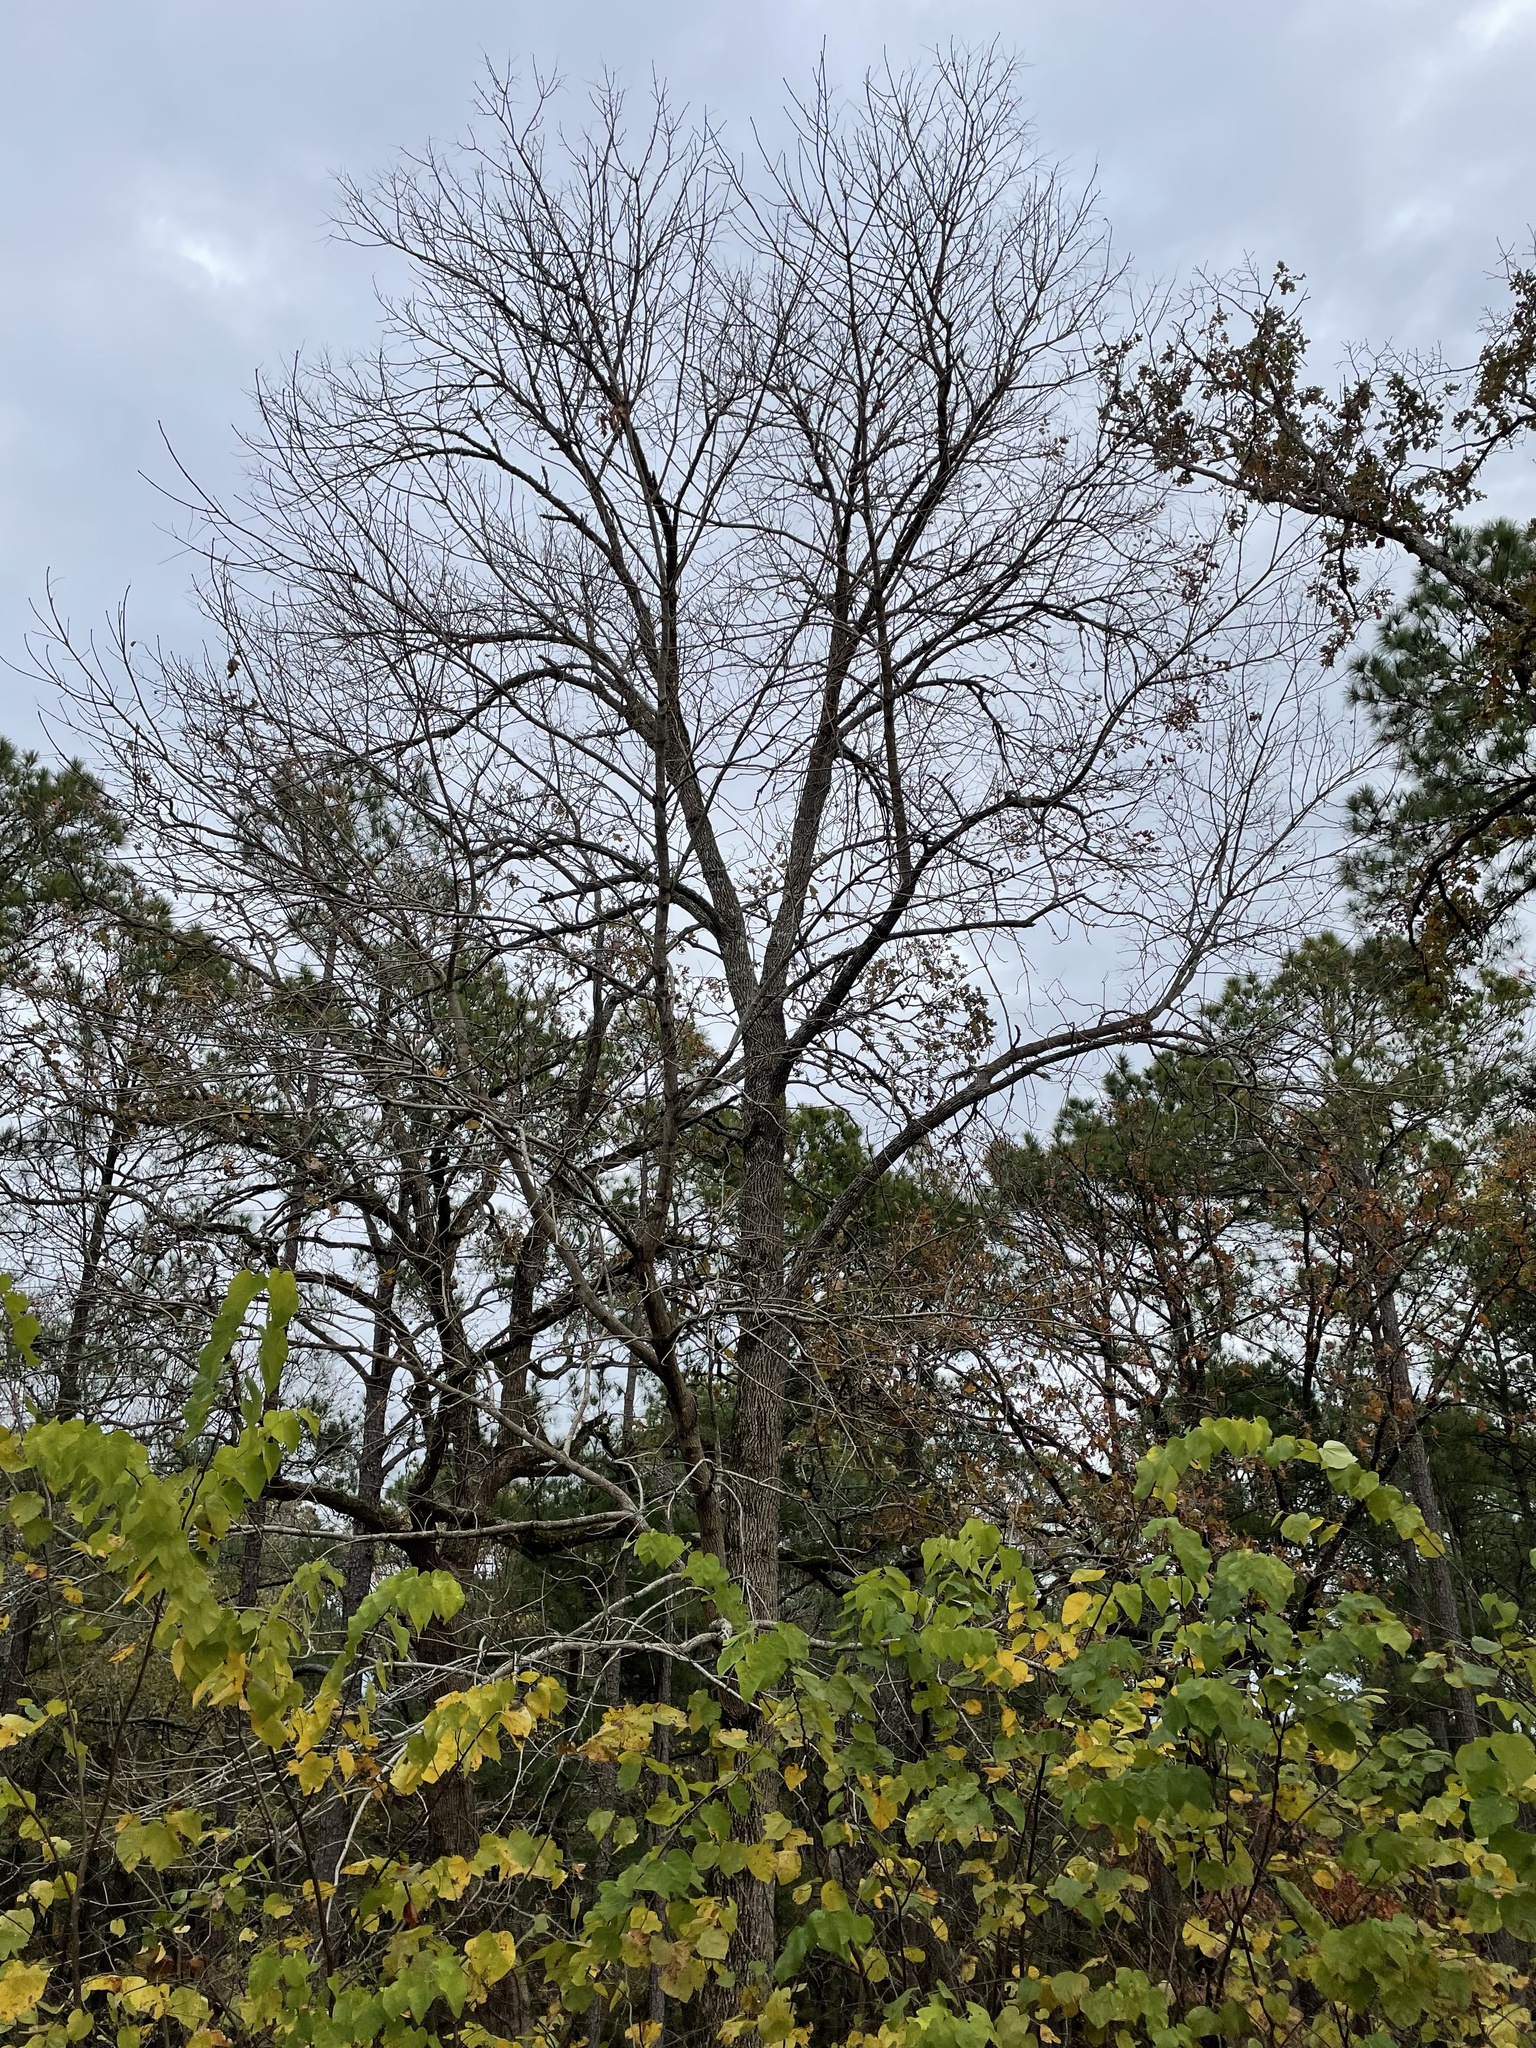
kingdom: Plantae
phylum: Tracheophyta
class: Magnoliopsida
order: Lamiales
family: Oleaceae
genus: Fraxinus
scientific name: Fraxinus americana
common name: White ash
